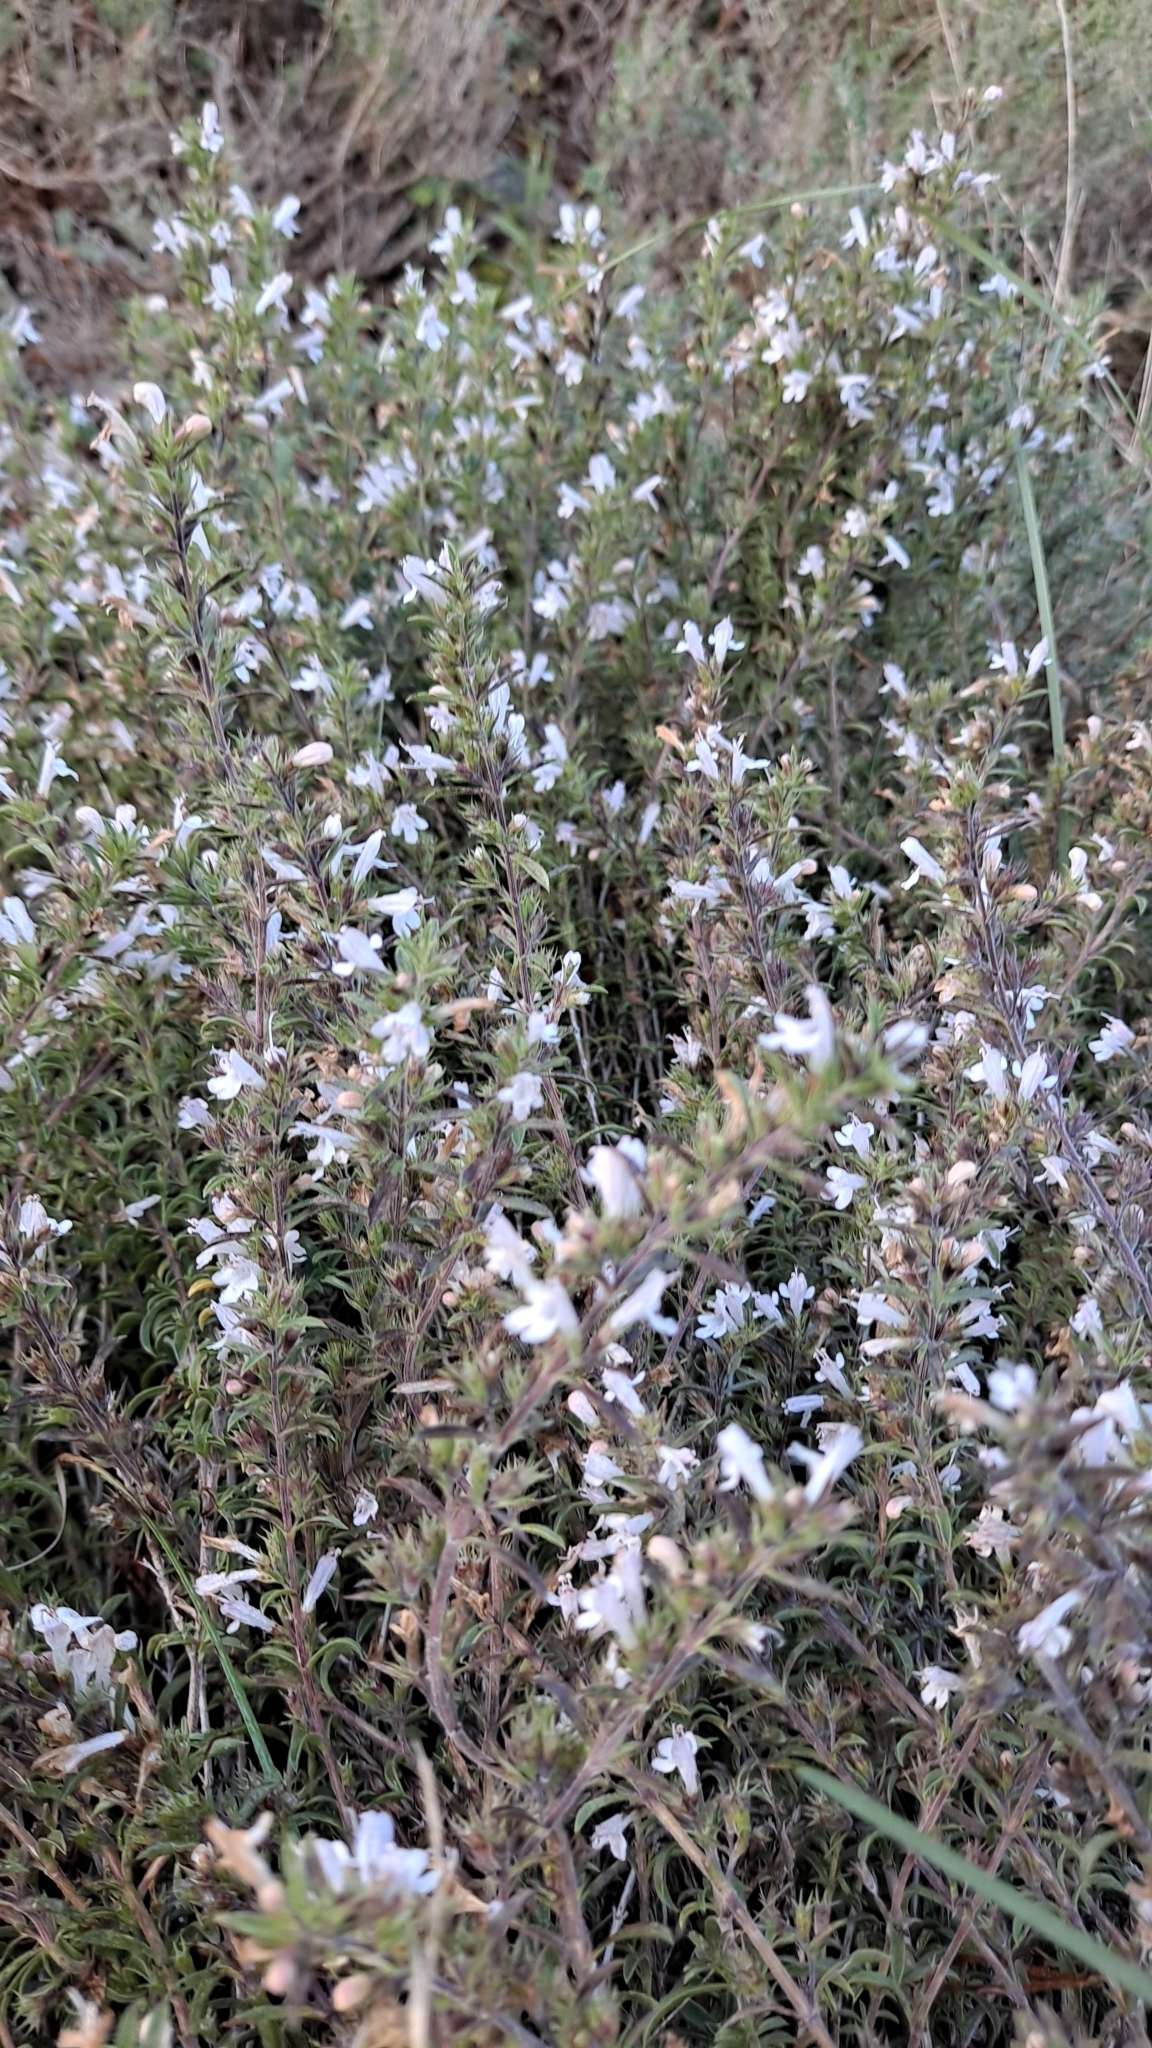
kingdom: Plantae
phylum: Tracheophyta
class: Magnoliopsida
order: Lamiales
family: Lamiaceae
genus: Satureja
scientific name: Satureja montana
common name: Winter savory
